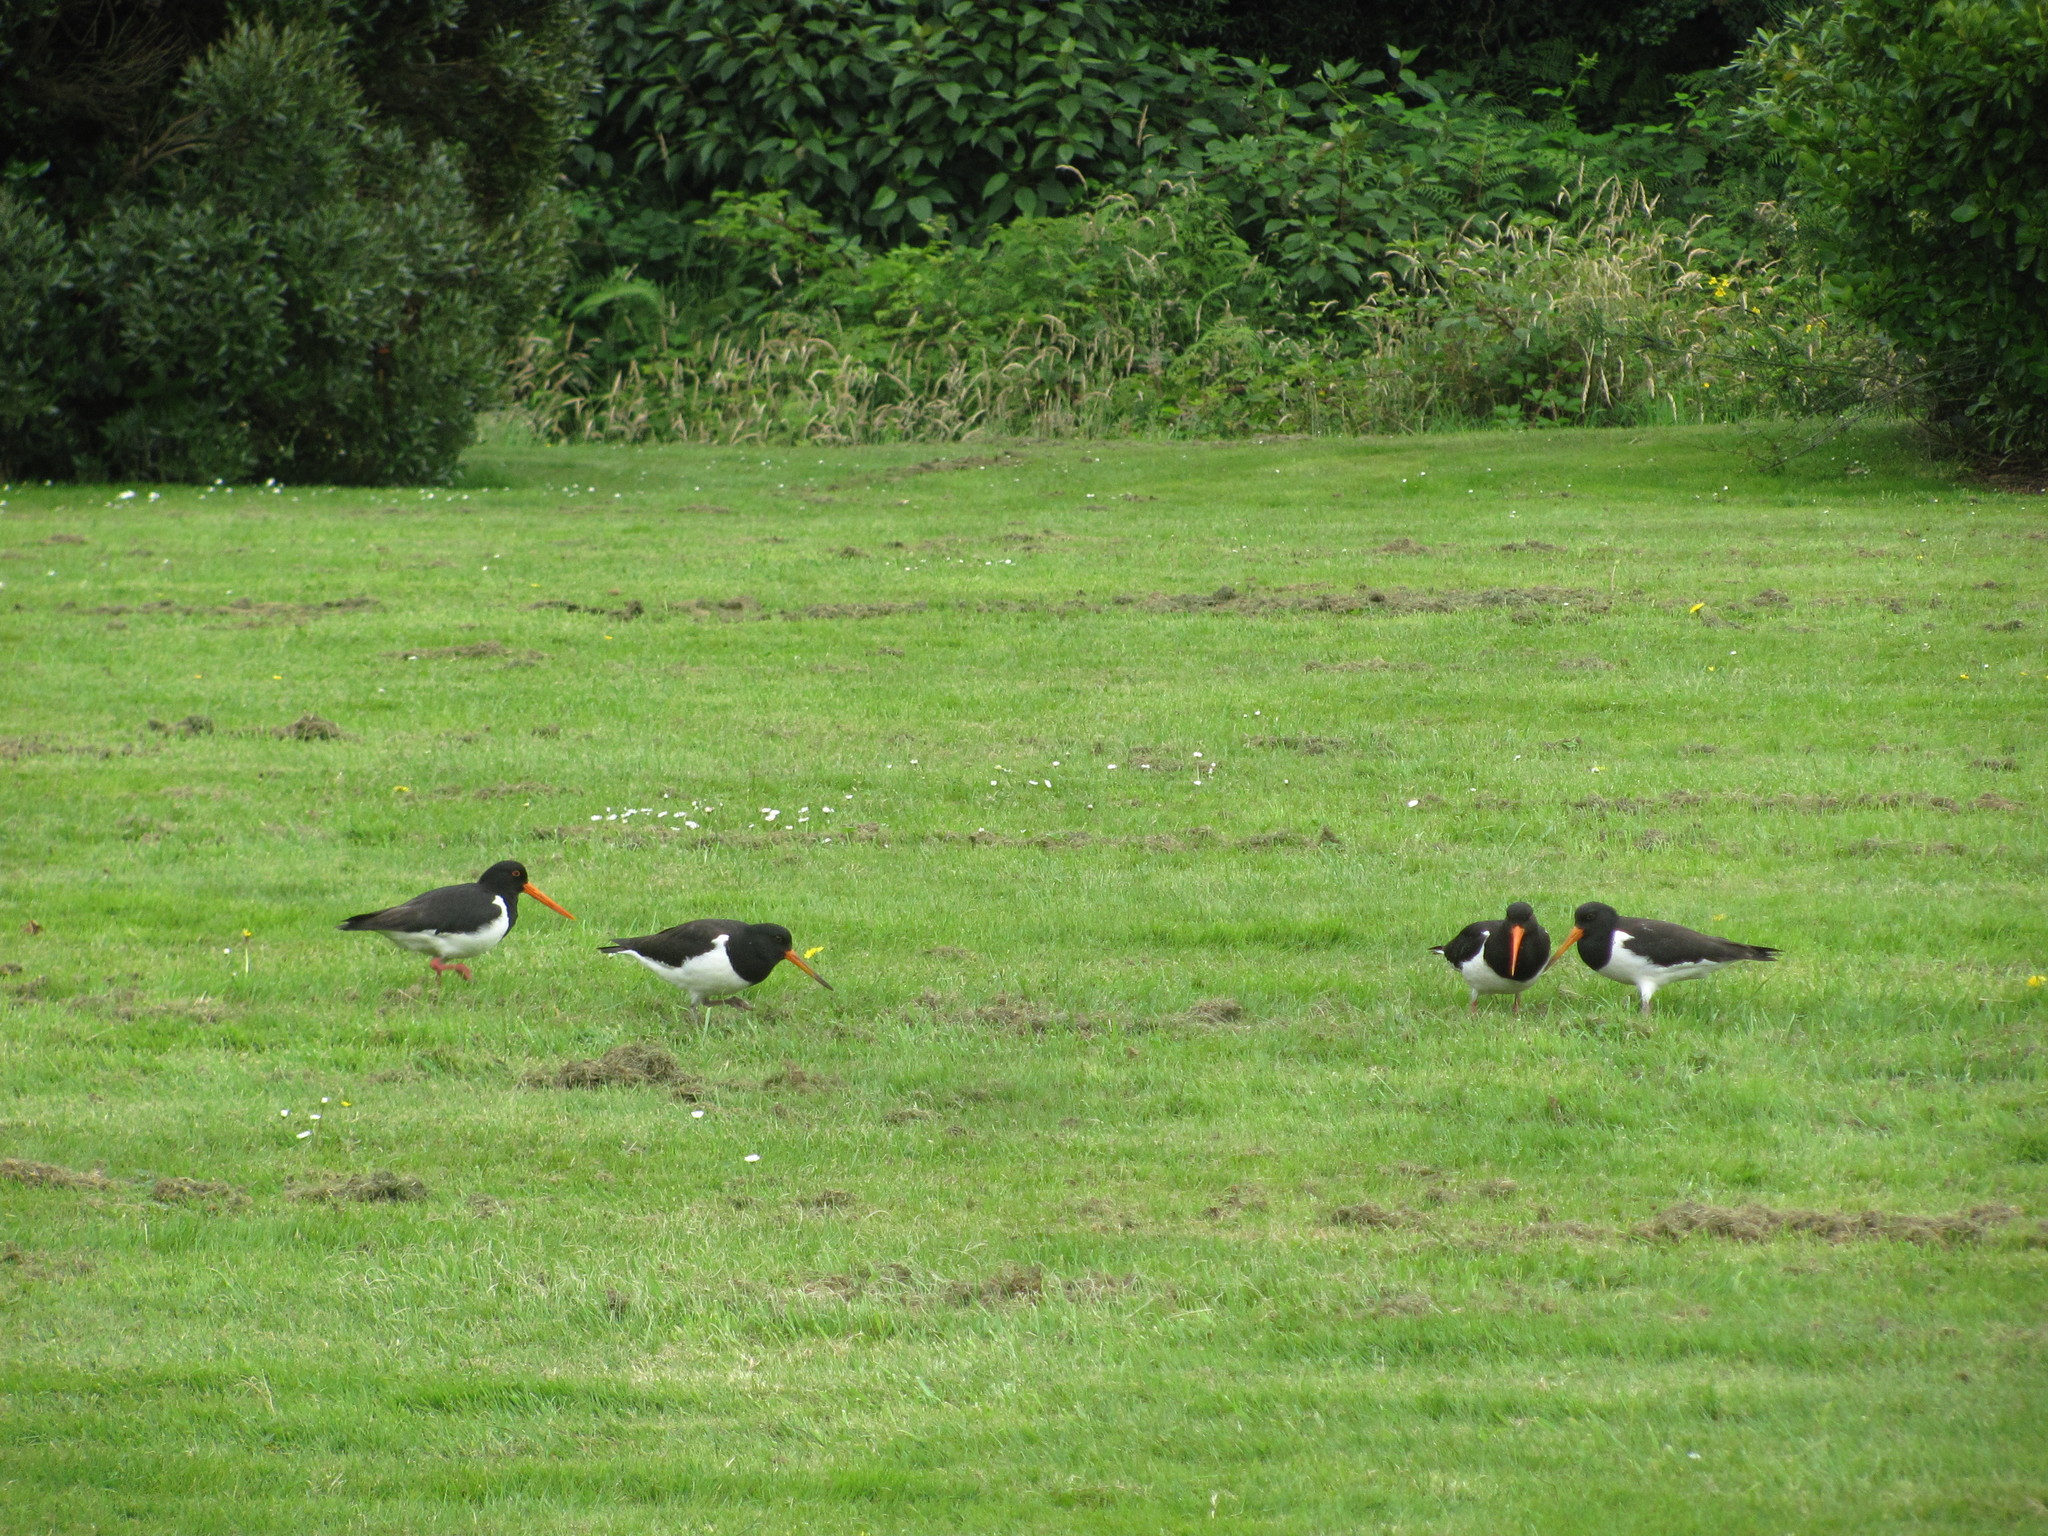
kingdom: Animalia
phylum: Chordata
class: Aves
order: Charadriiformes
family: Haematopodidae
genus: Haematopus
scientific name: Haematopus finschi
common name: South island oystercatcher
